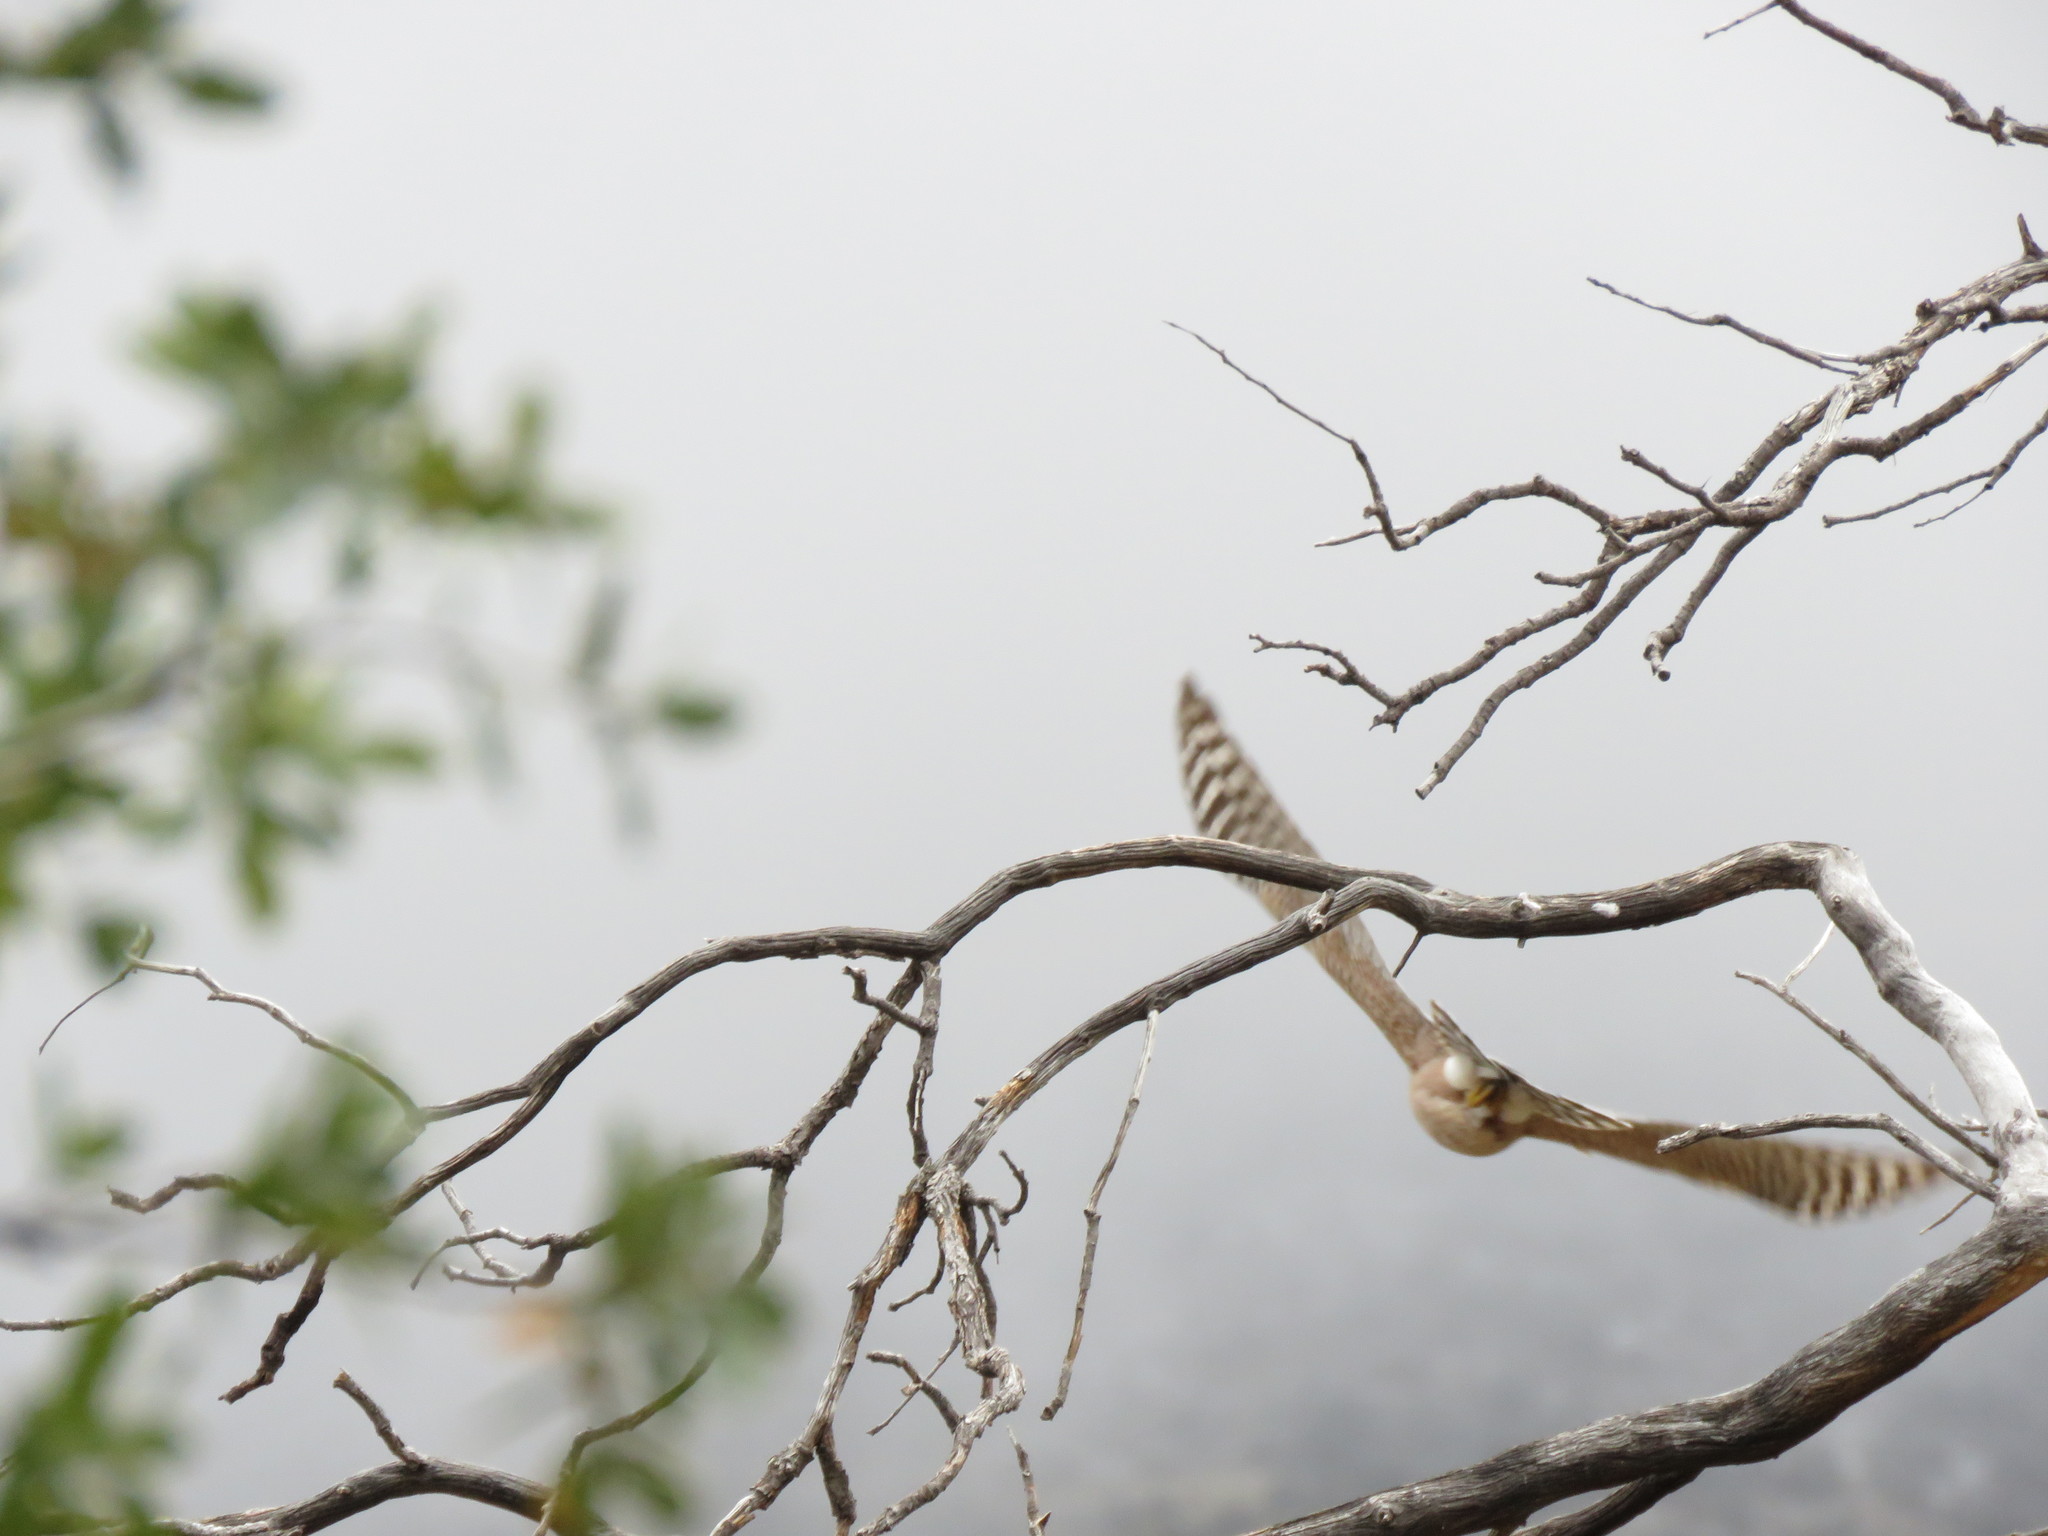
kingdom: Animalia
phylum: Chordata
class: Aves
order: Accipitriformes
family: Accipitridae
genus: Accipiter
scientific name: Accipiter
